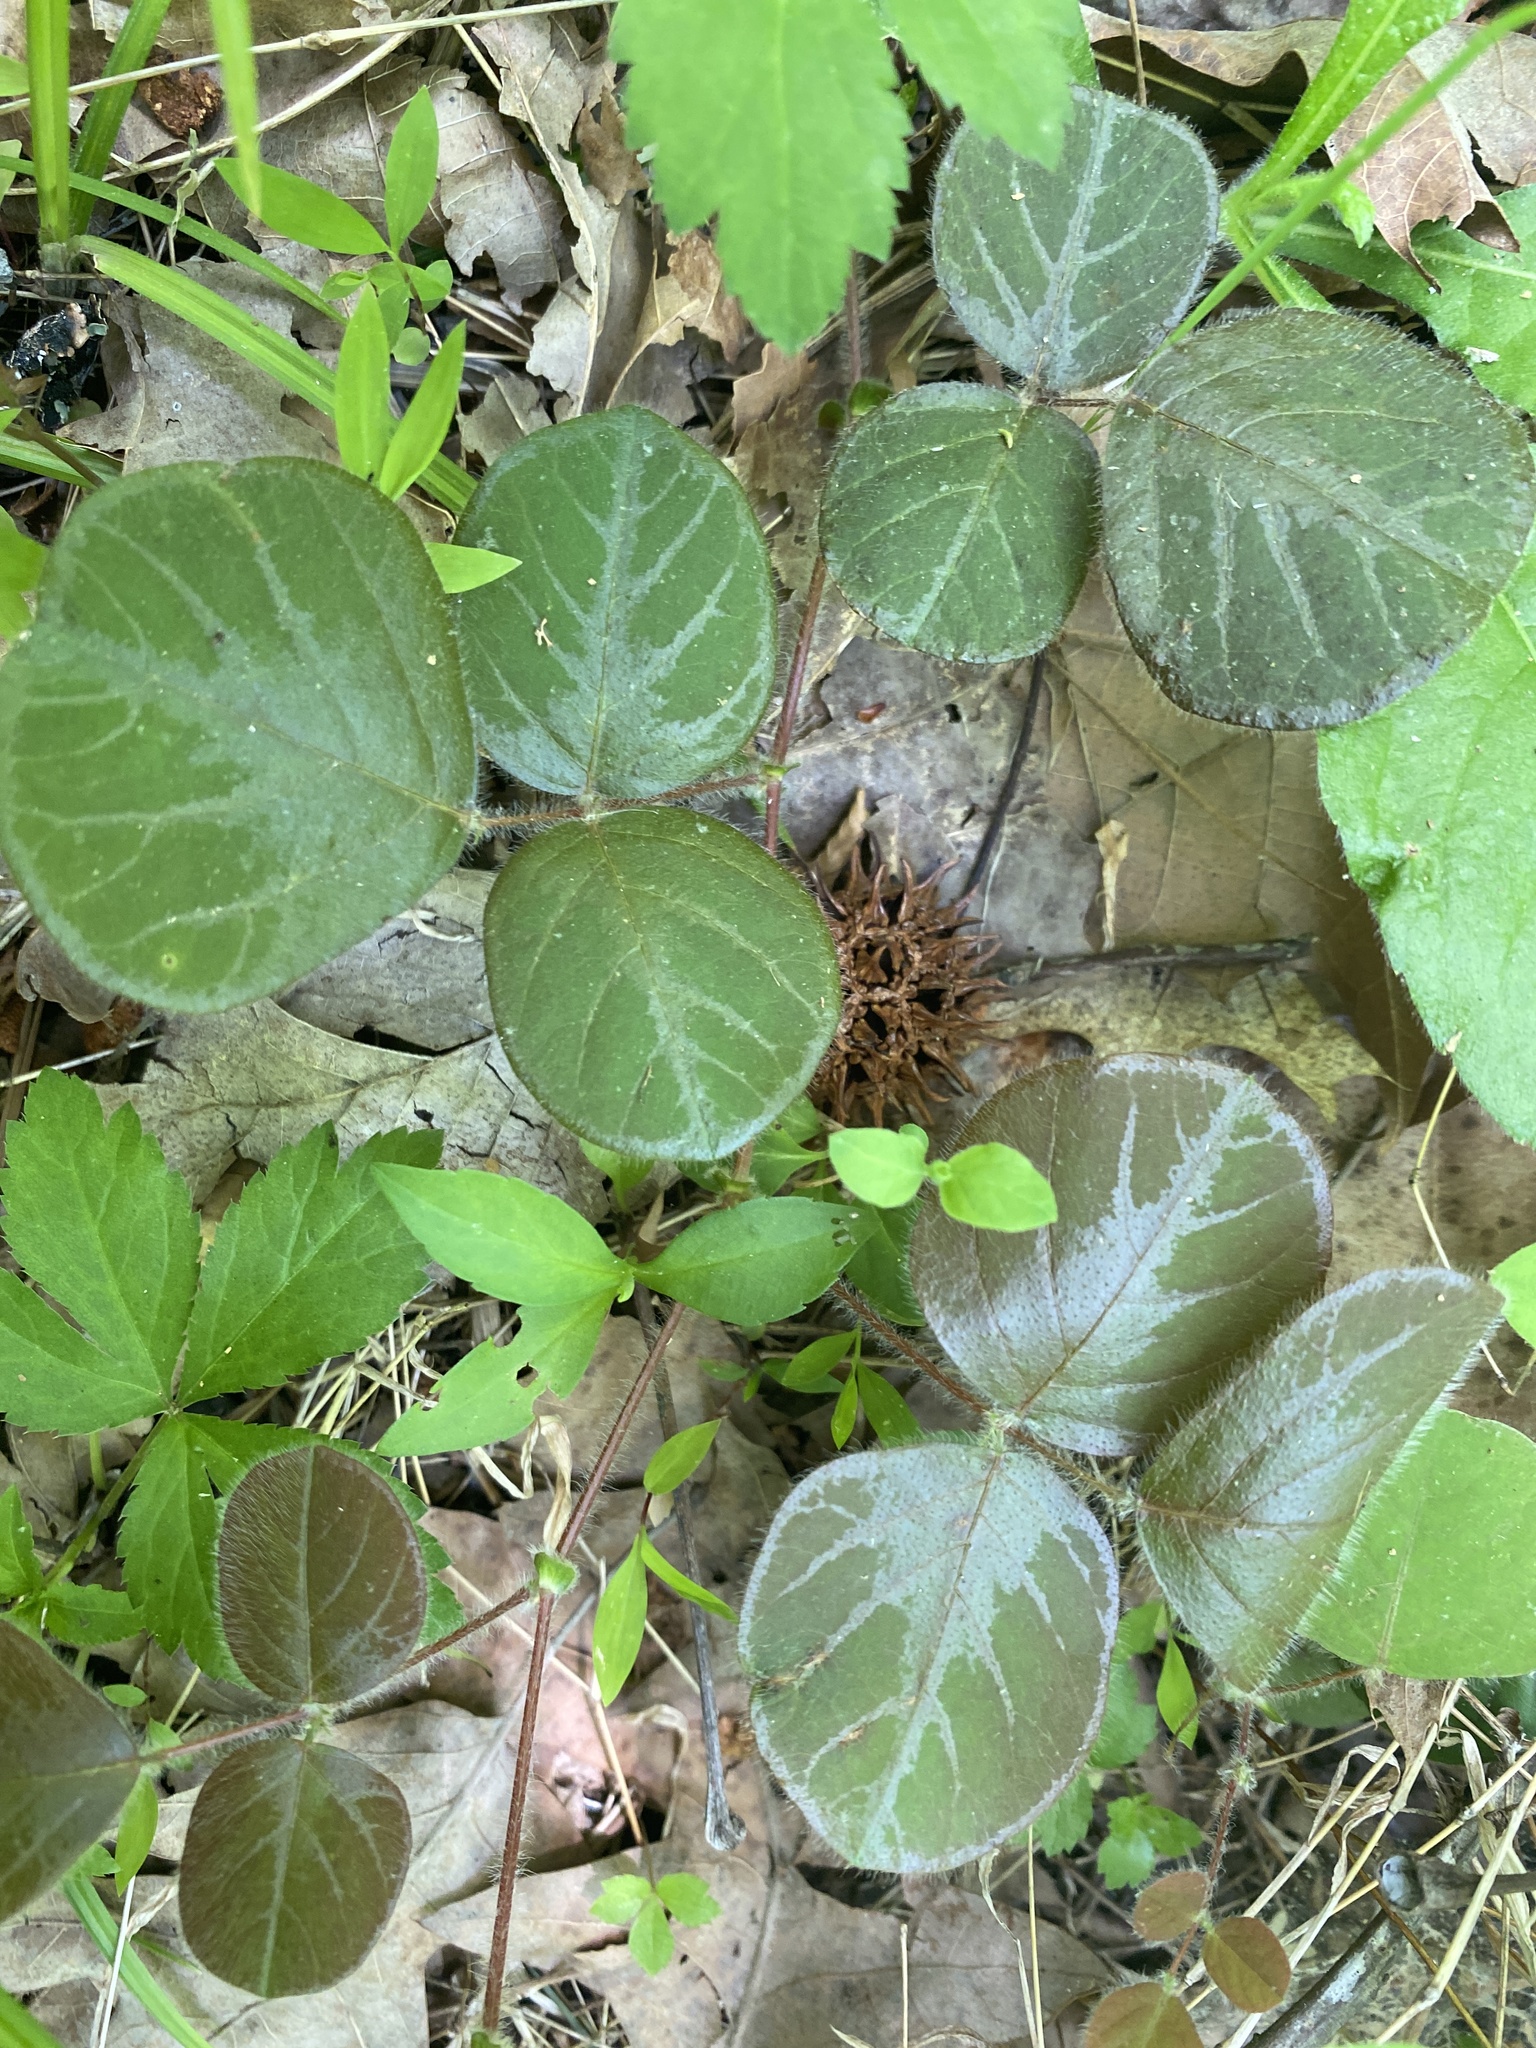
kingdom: Plantae
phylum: Tracheophyta
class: Magnoliopsida
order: Fabales
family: Fabaceae
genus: Desmodium
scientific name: Desmodium rotundifolium
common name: Dollarleaf
